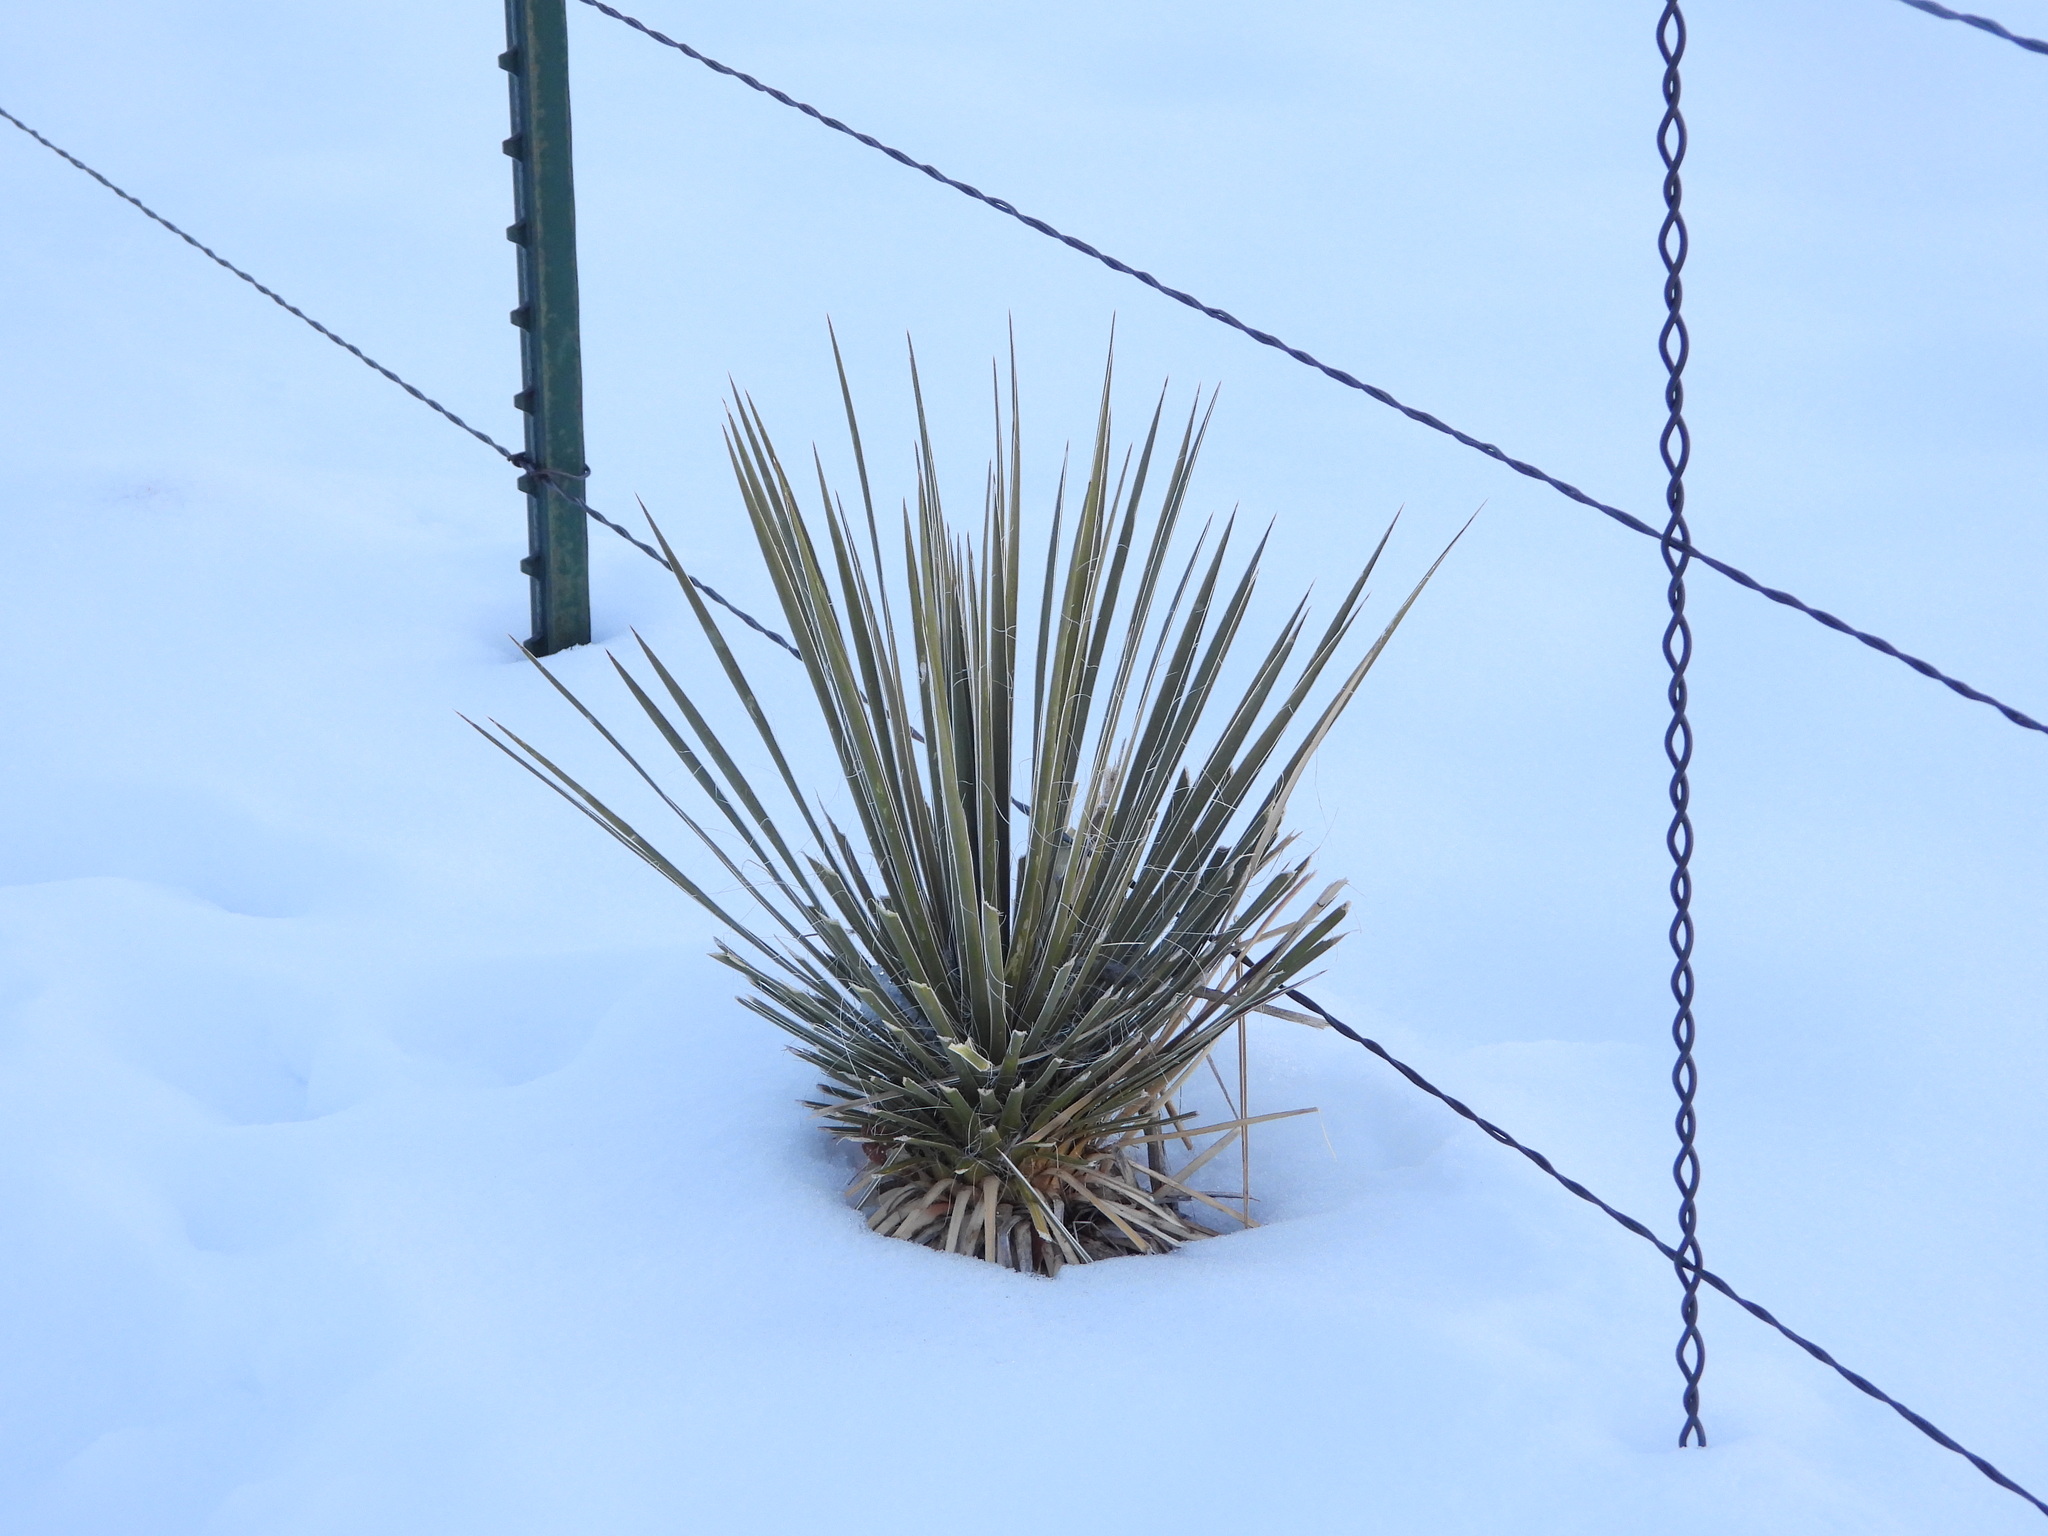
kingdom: Plantae
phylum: Tracheophyta
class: Liliopsida
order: Asparagales
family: Asparagaceae
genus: Yucca
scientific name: Yucca glauca
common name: Great plains yucca
